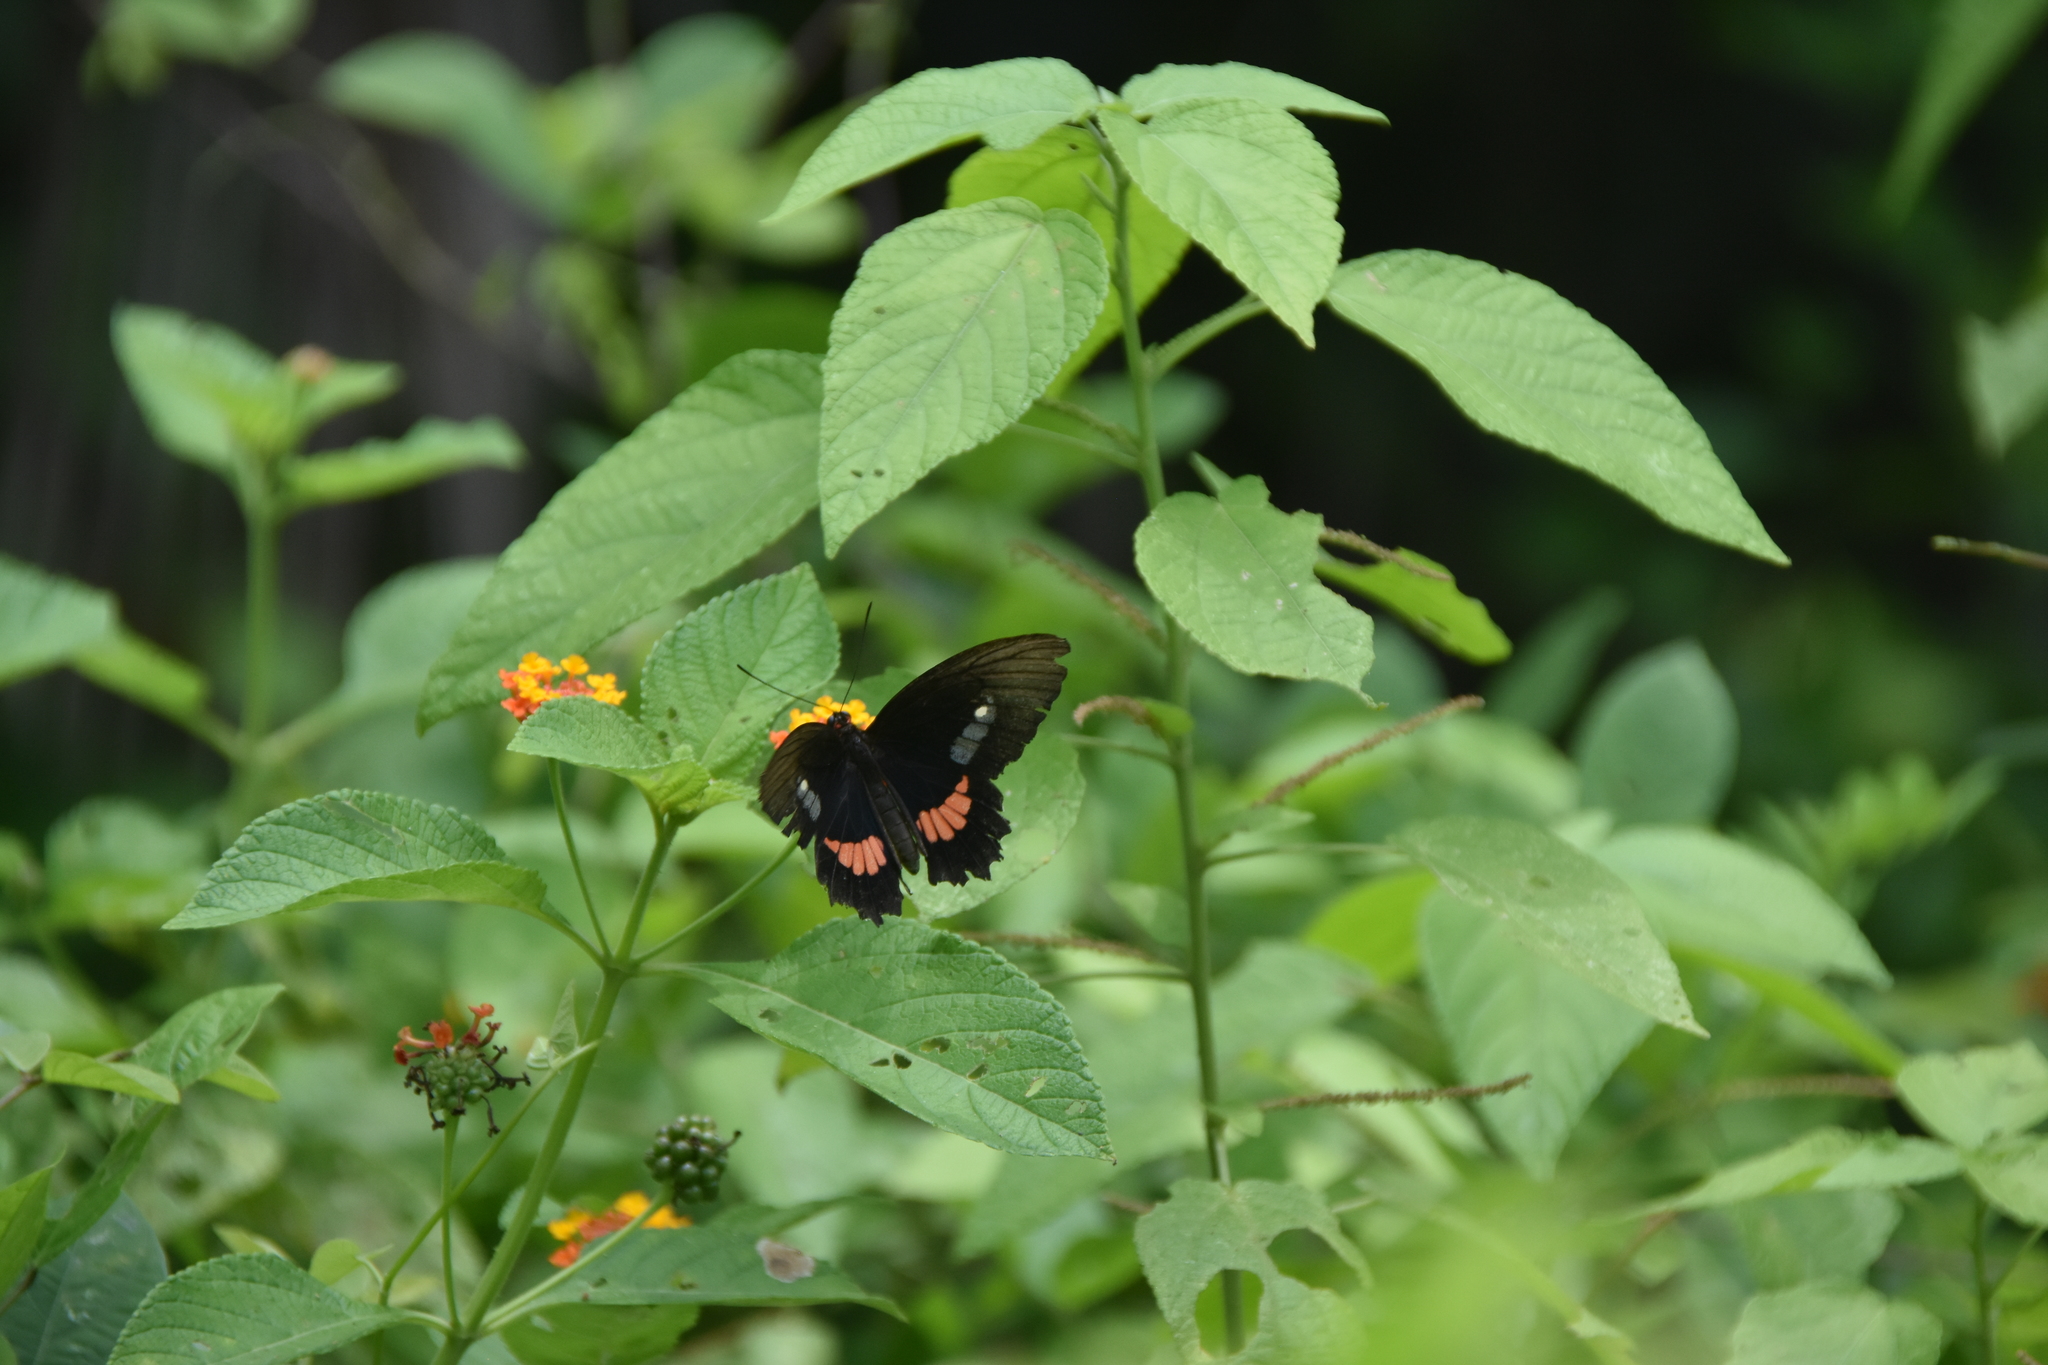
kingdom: Animalia
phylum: Arthropoda
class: Insecta
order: Lepidoptera
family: Papilionidae
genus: Parides
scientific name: Parides anchises
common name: Cattle heart
